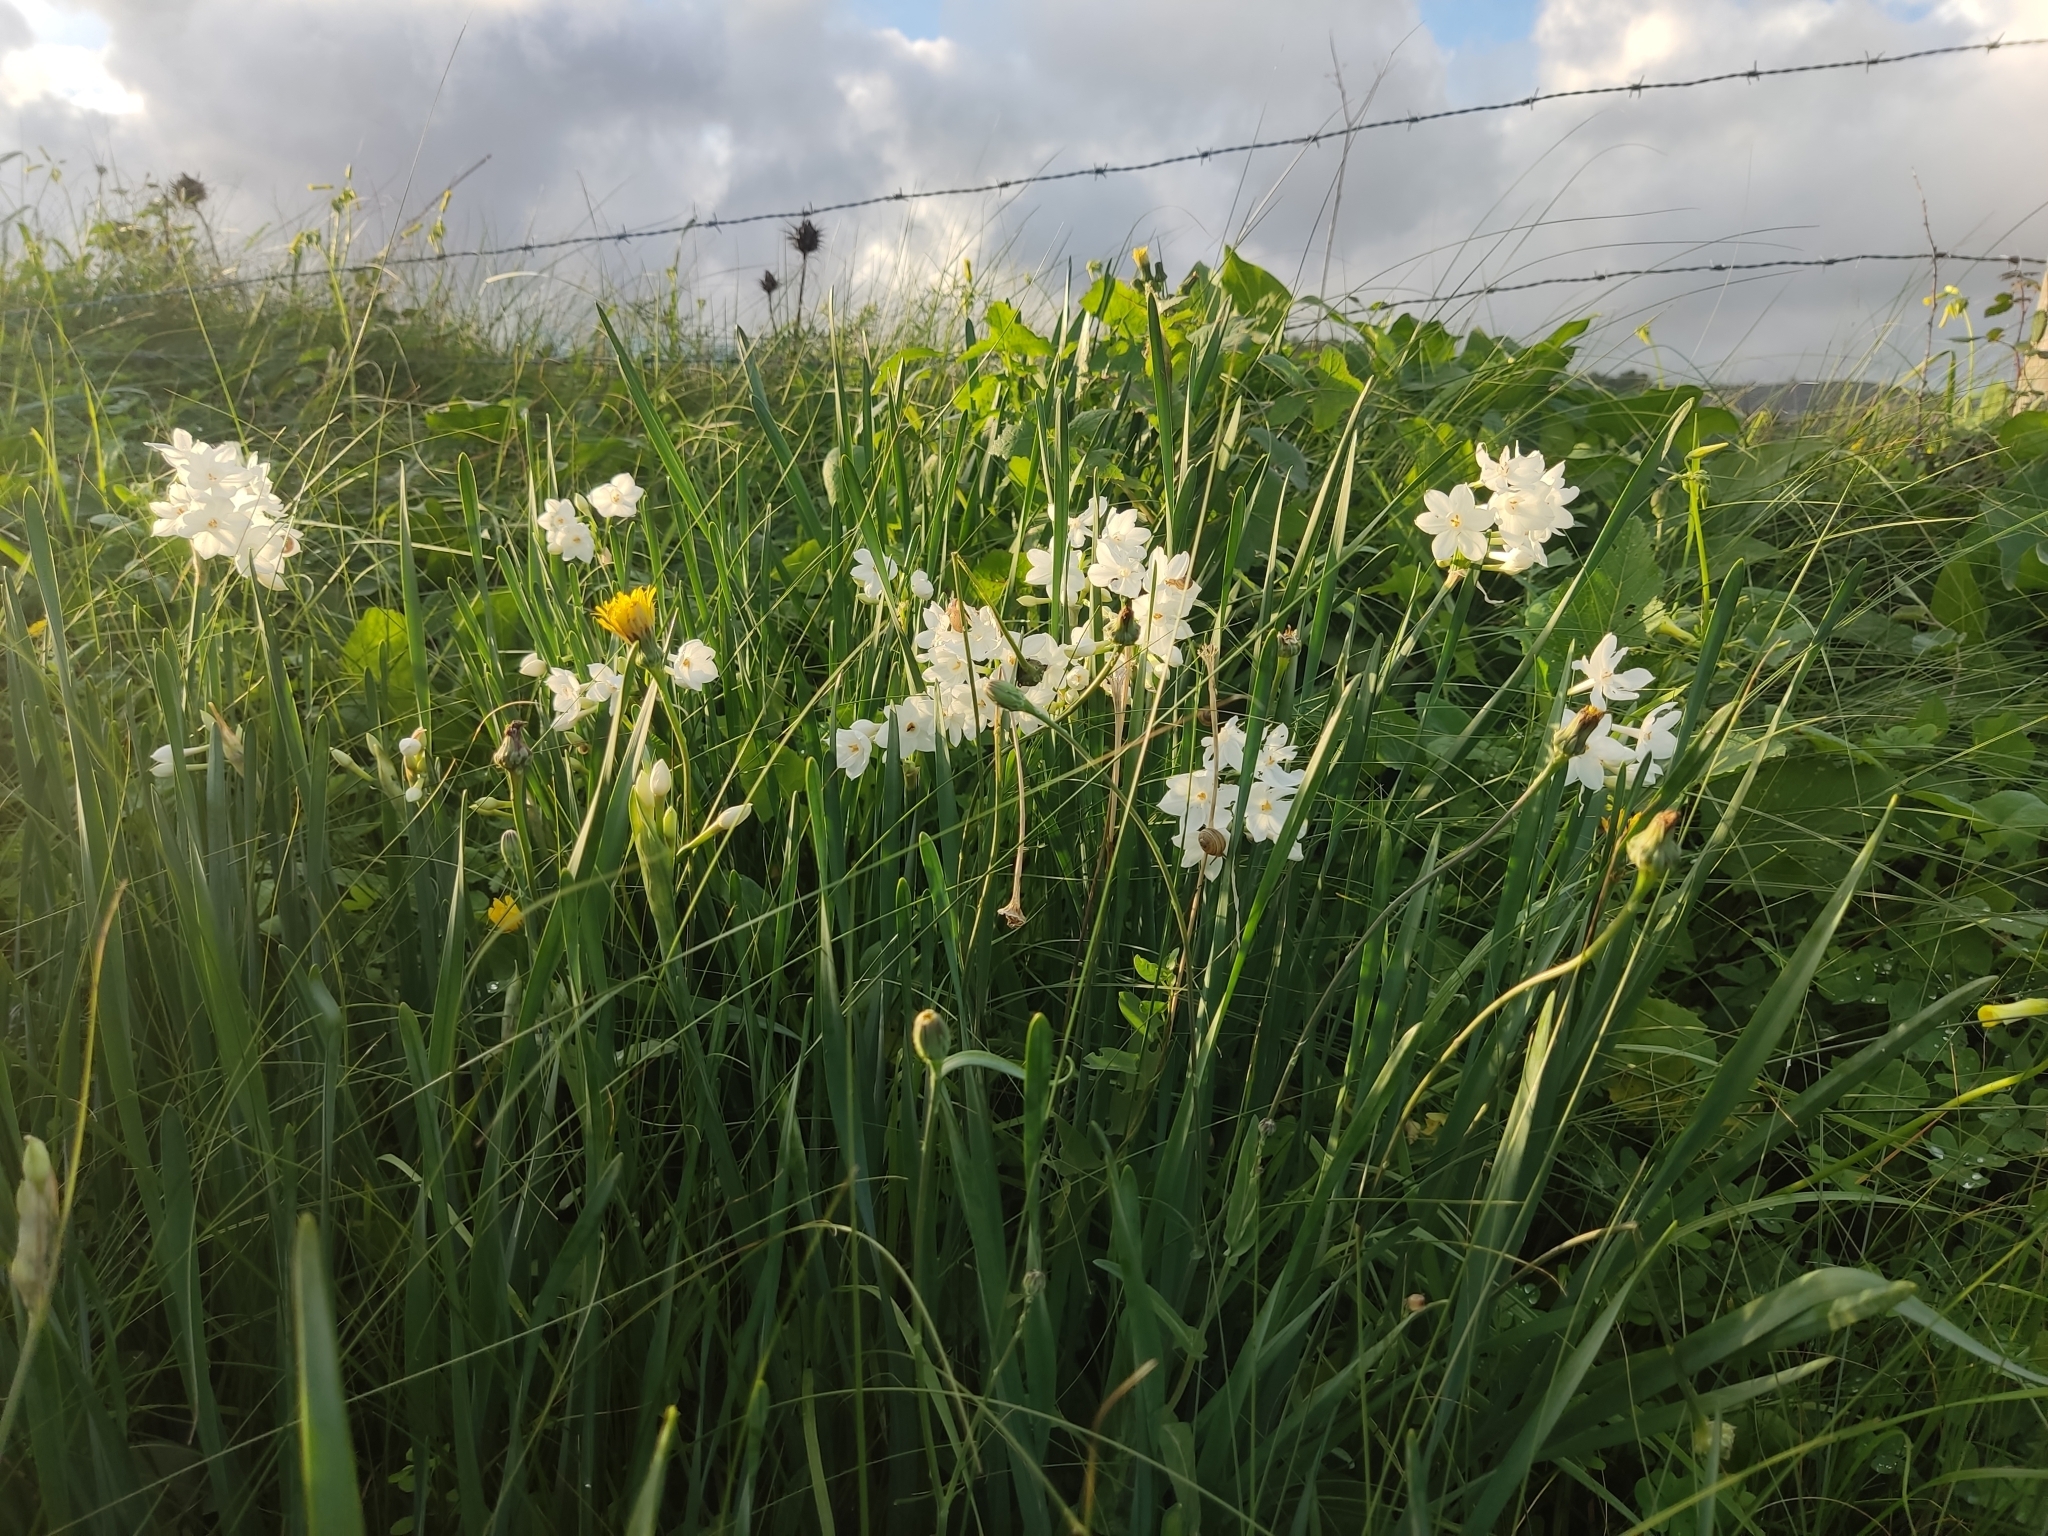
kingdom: Plantae
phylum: Tracheophyta
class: Liliopsida
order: Asparagales
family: Amaryllidaceae
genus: Narcissus
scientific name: Narcissus papyraceus
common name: Paper-white daffodil
